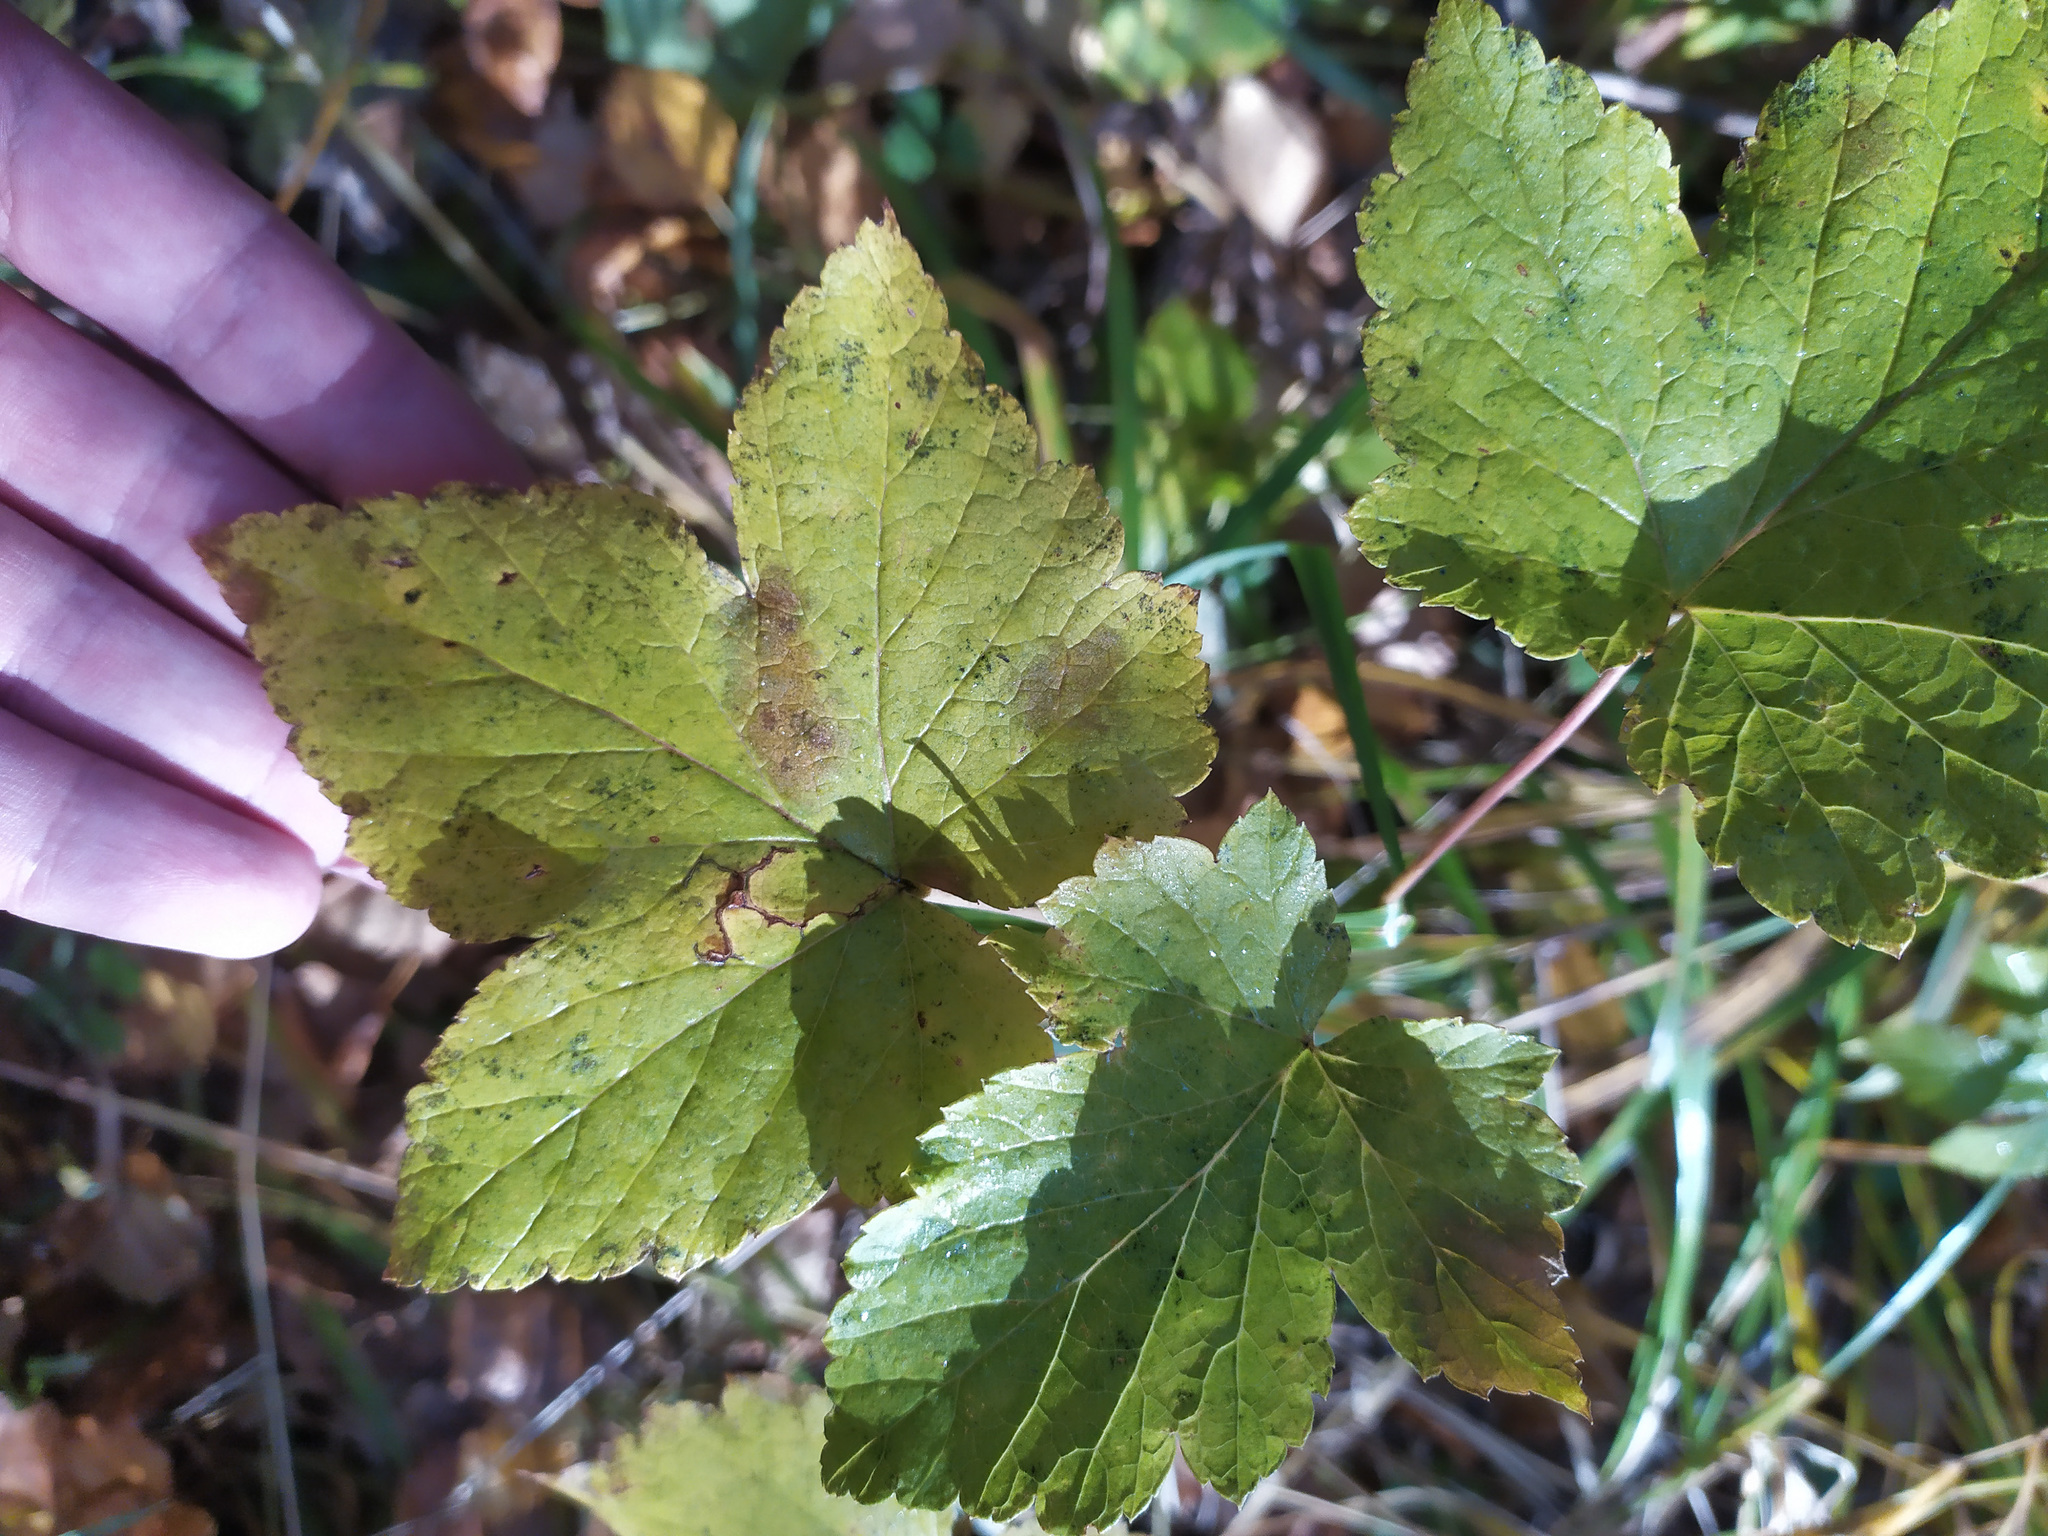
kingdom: Plantae
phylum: Tracheophyta
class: Magnoliopsida
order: Saxifragales
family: Grossulariaceae
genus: Ribes
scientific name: Ribes nigrum
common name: Black currant
